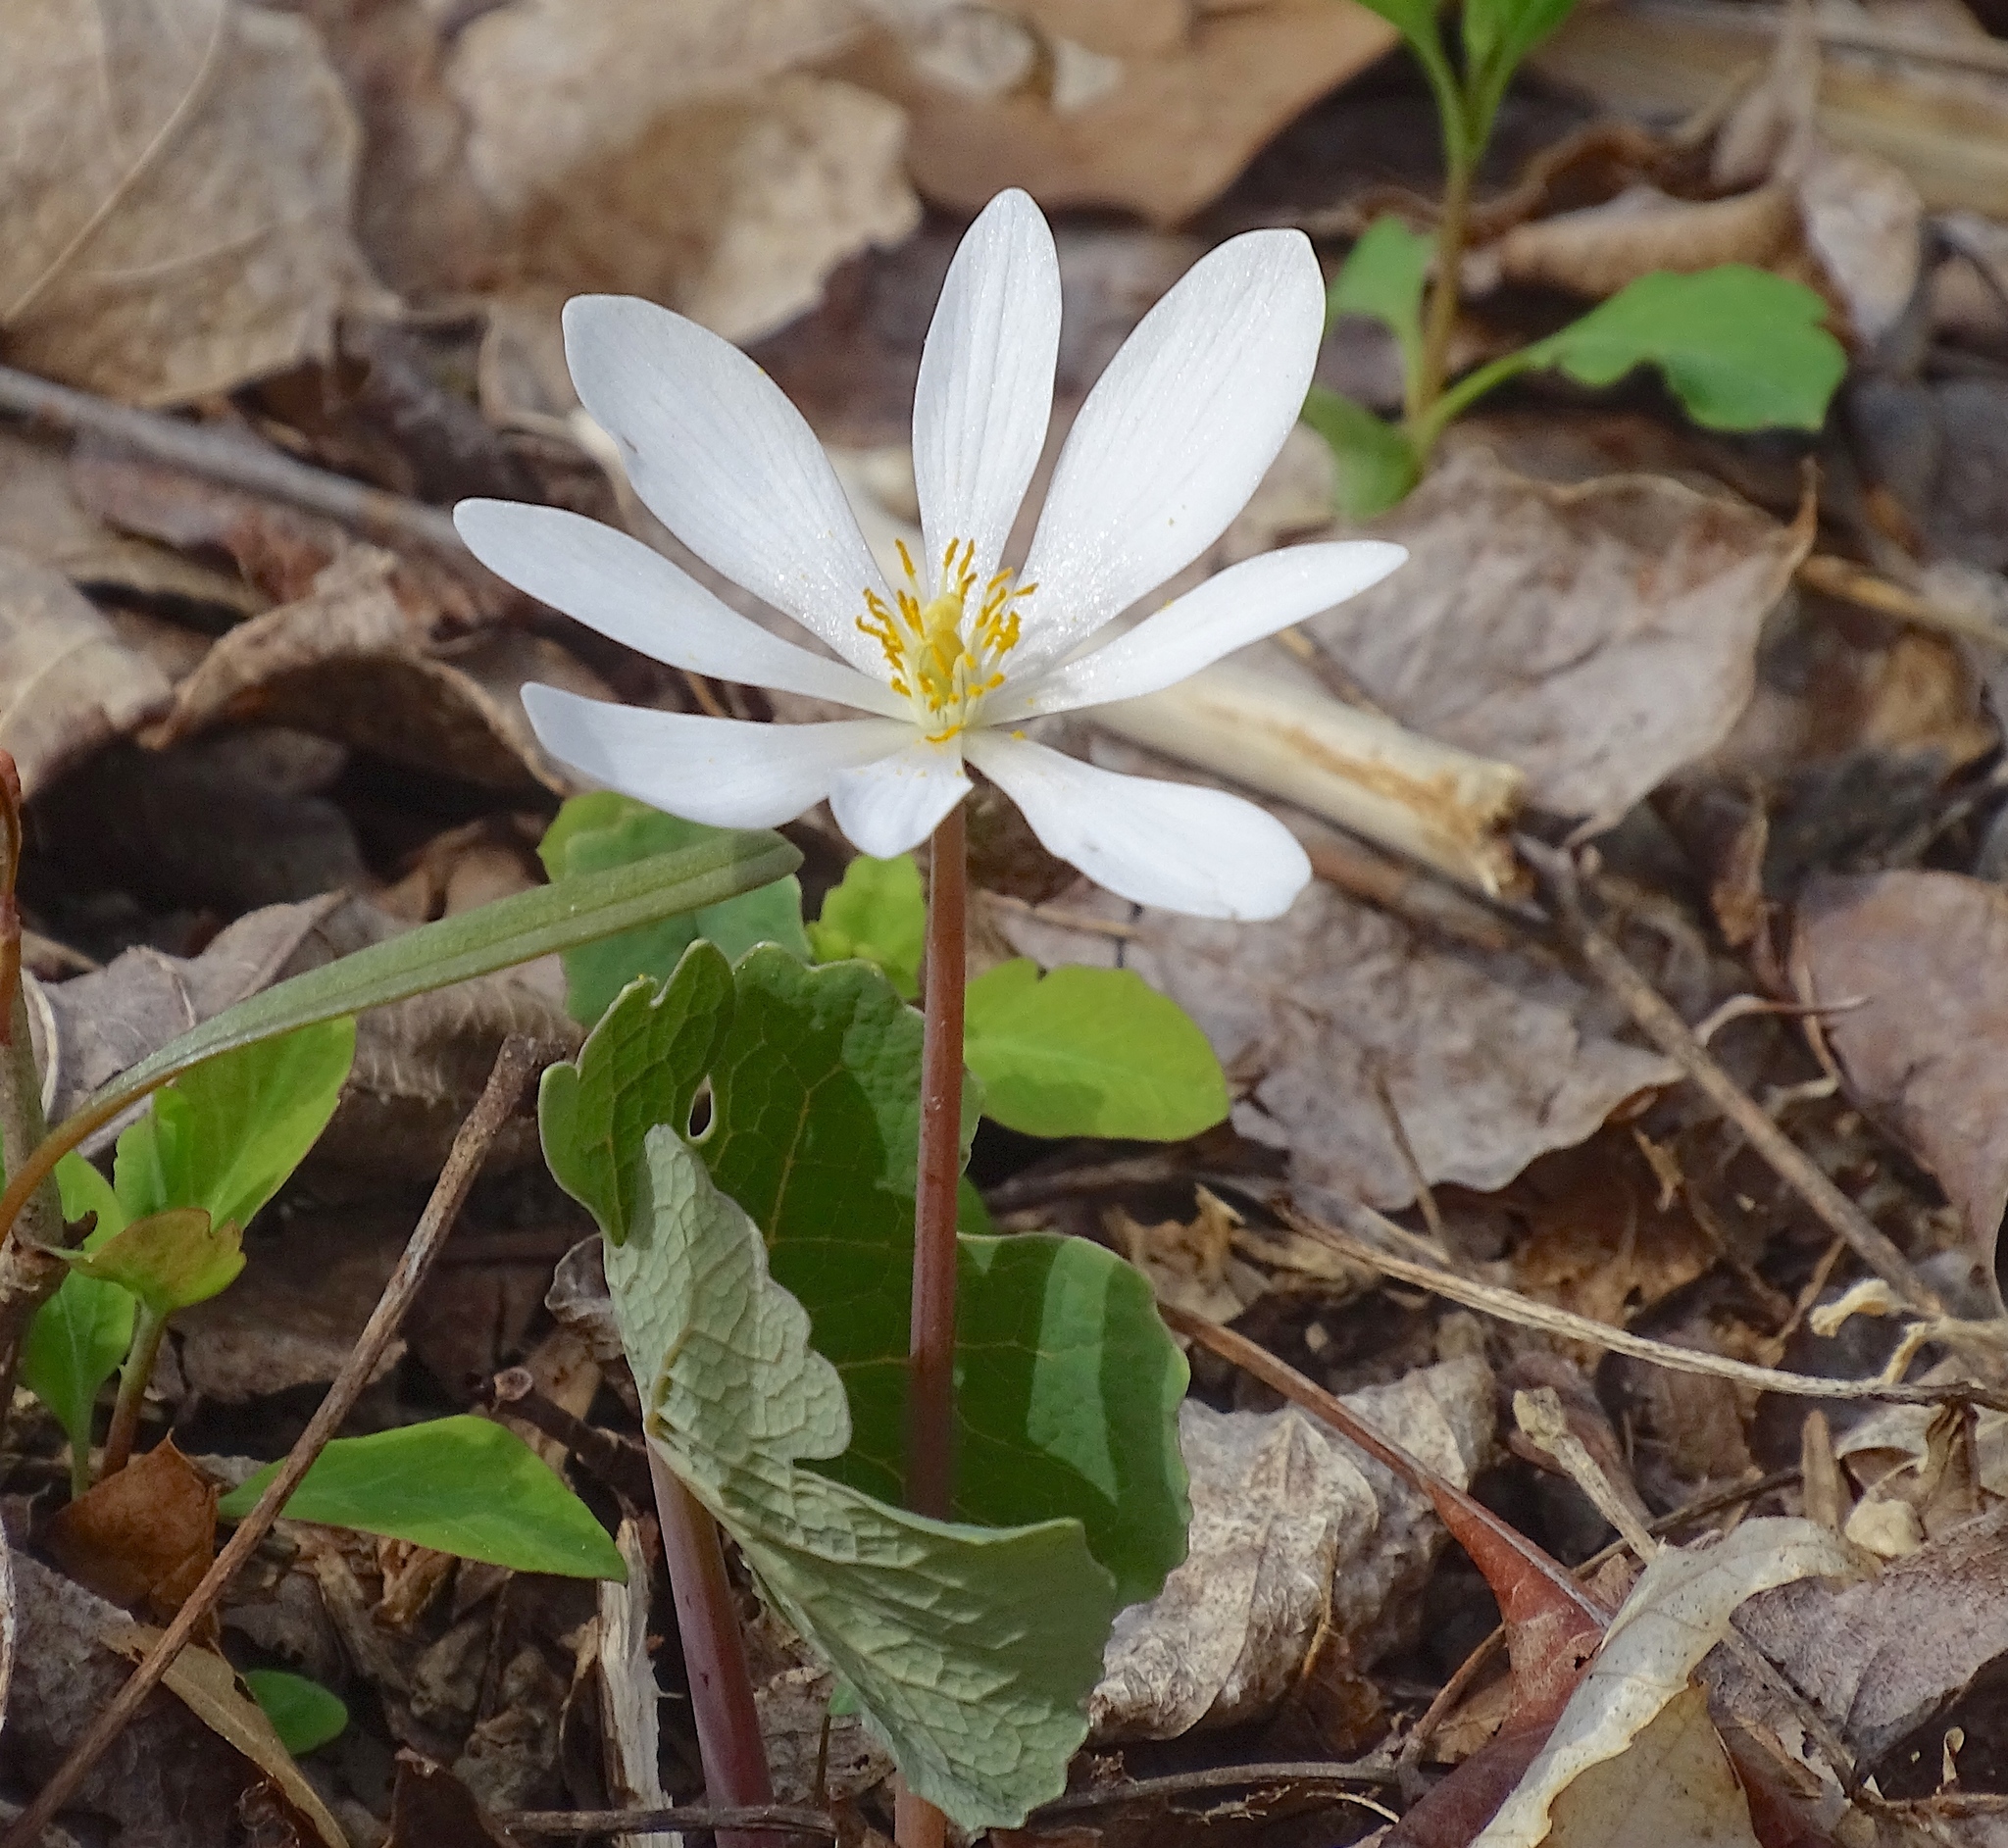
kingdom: Plantae
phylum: Tracheophyta
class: Magnoliopsida
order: Ranunculales
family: Papaveraceae
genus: Sanguinaria
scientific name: Sanguinaria canadensis
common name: Bloodroot
